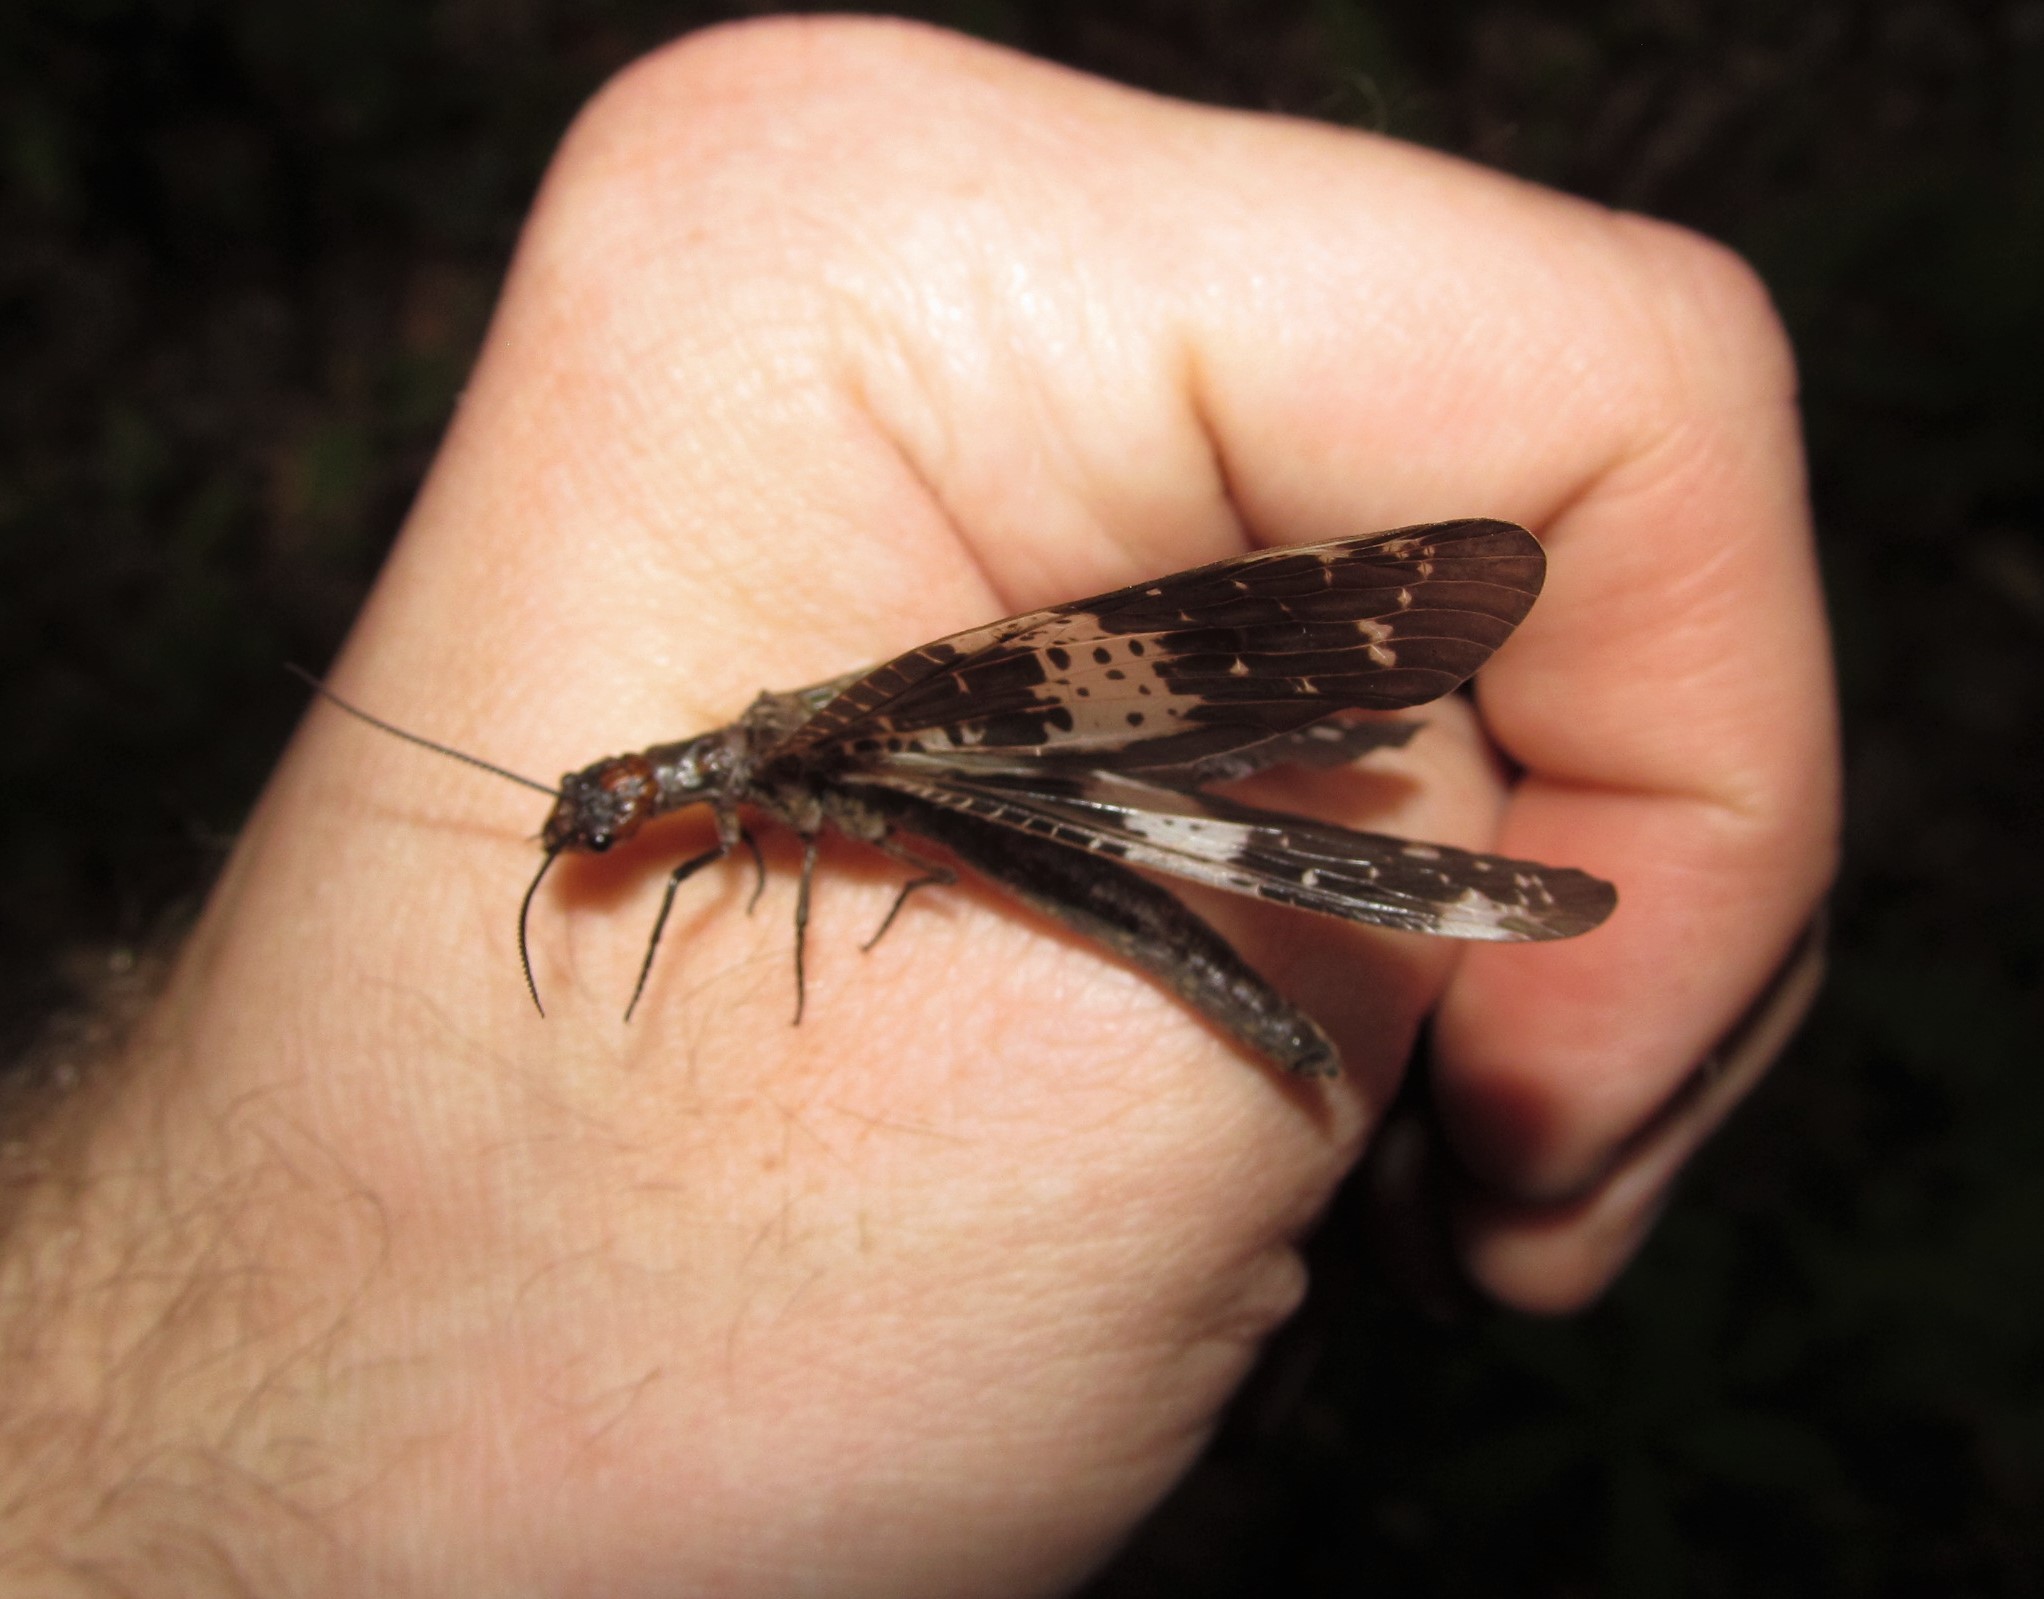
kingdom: Animalia
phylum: Arthropoda
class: Insecta
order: Megaloptera
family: Corydalidae
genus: Nigronia
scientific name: Nigronia fasciata
